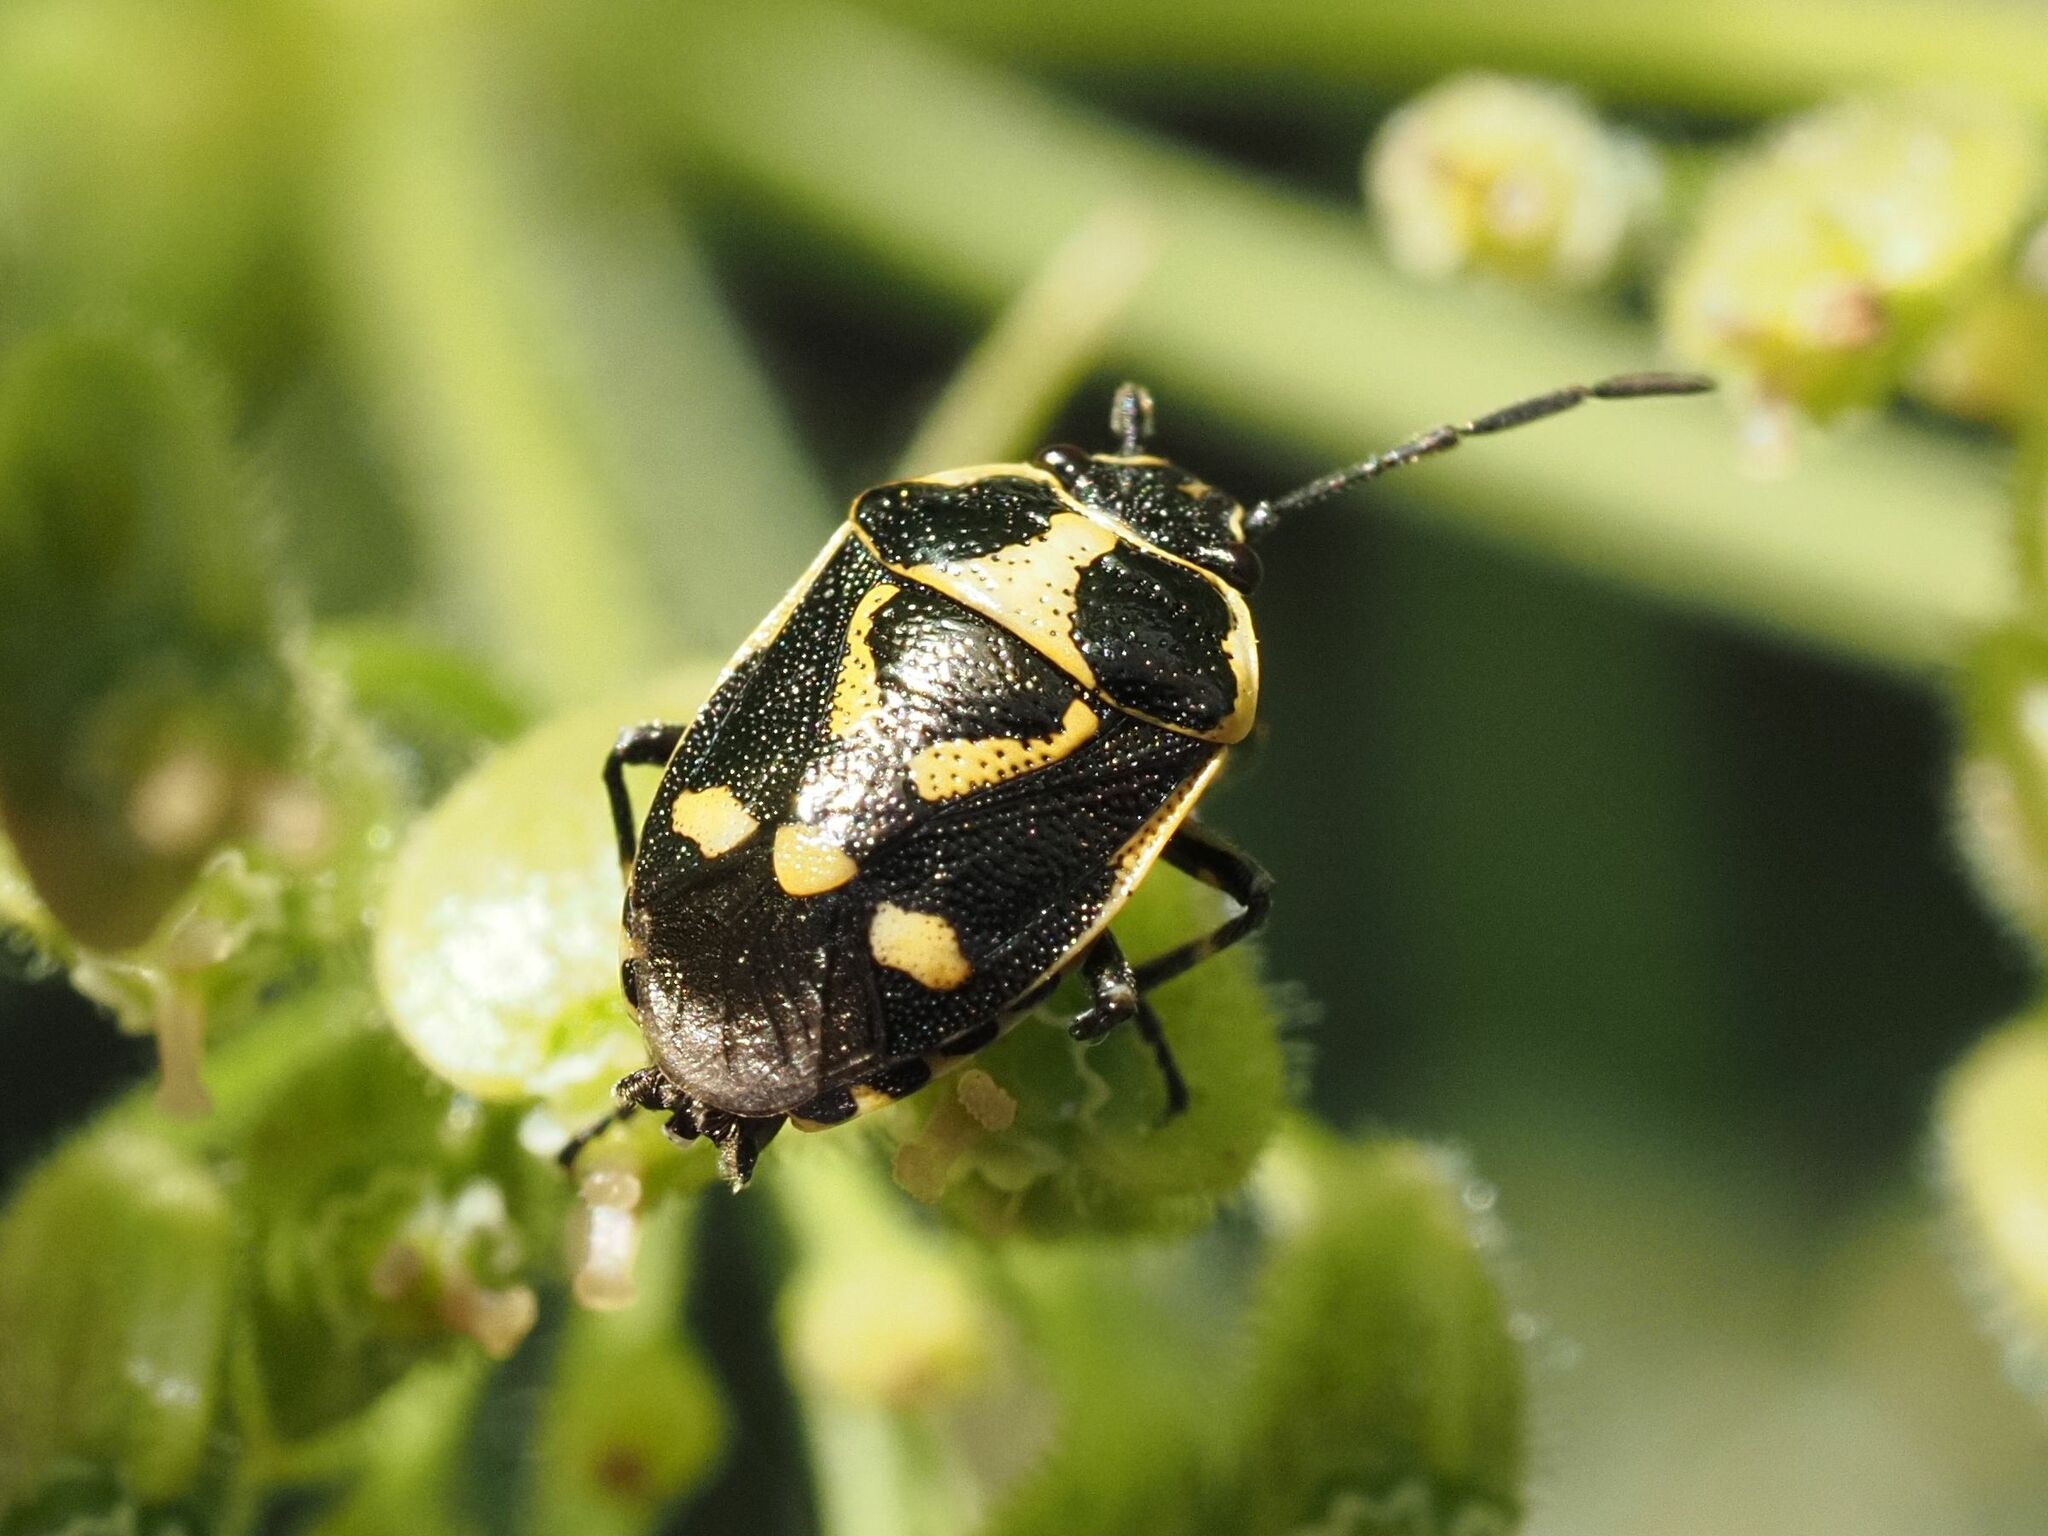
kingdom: Animalia
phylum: Arthropoda
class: Insecta
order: Hemiptera
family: Pentatomidae
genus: Eurydema
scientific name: Eurydema oleracea
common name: Cabbage bug
